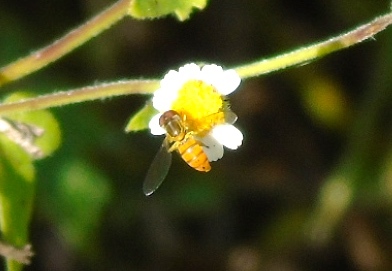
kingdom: Animalia
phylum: Arthropoda
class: Insecta
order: Diptera
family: Syrphidae
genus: Toxomerus
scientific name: Toxomerus
